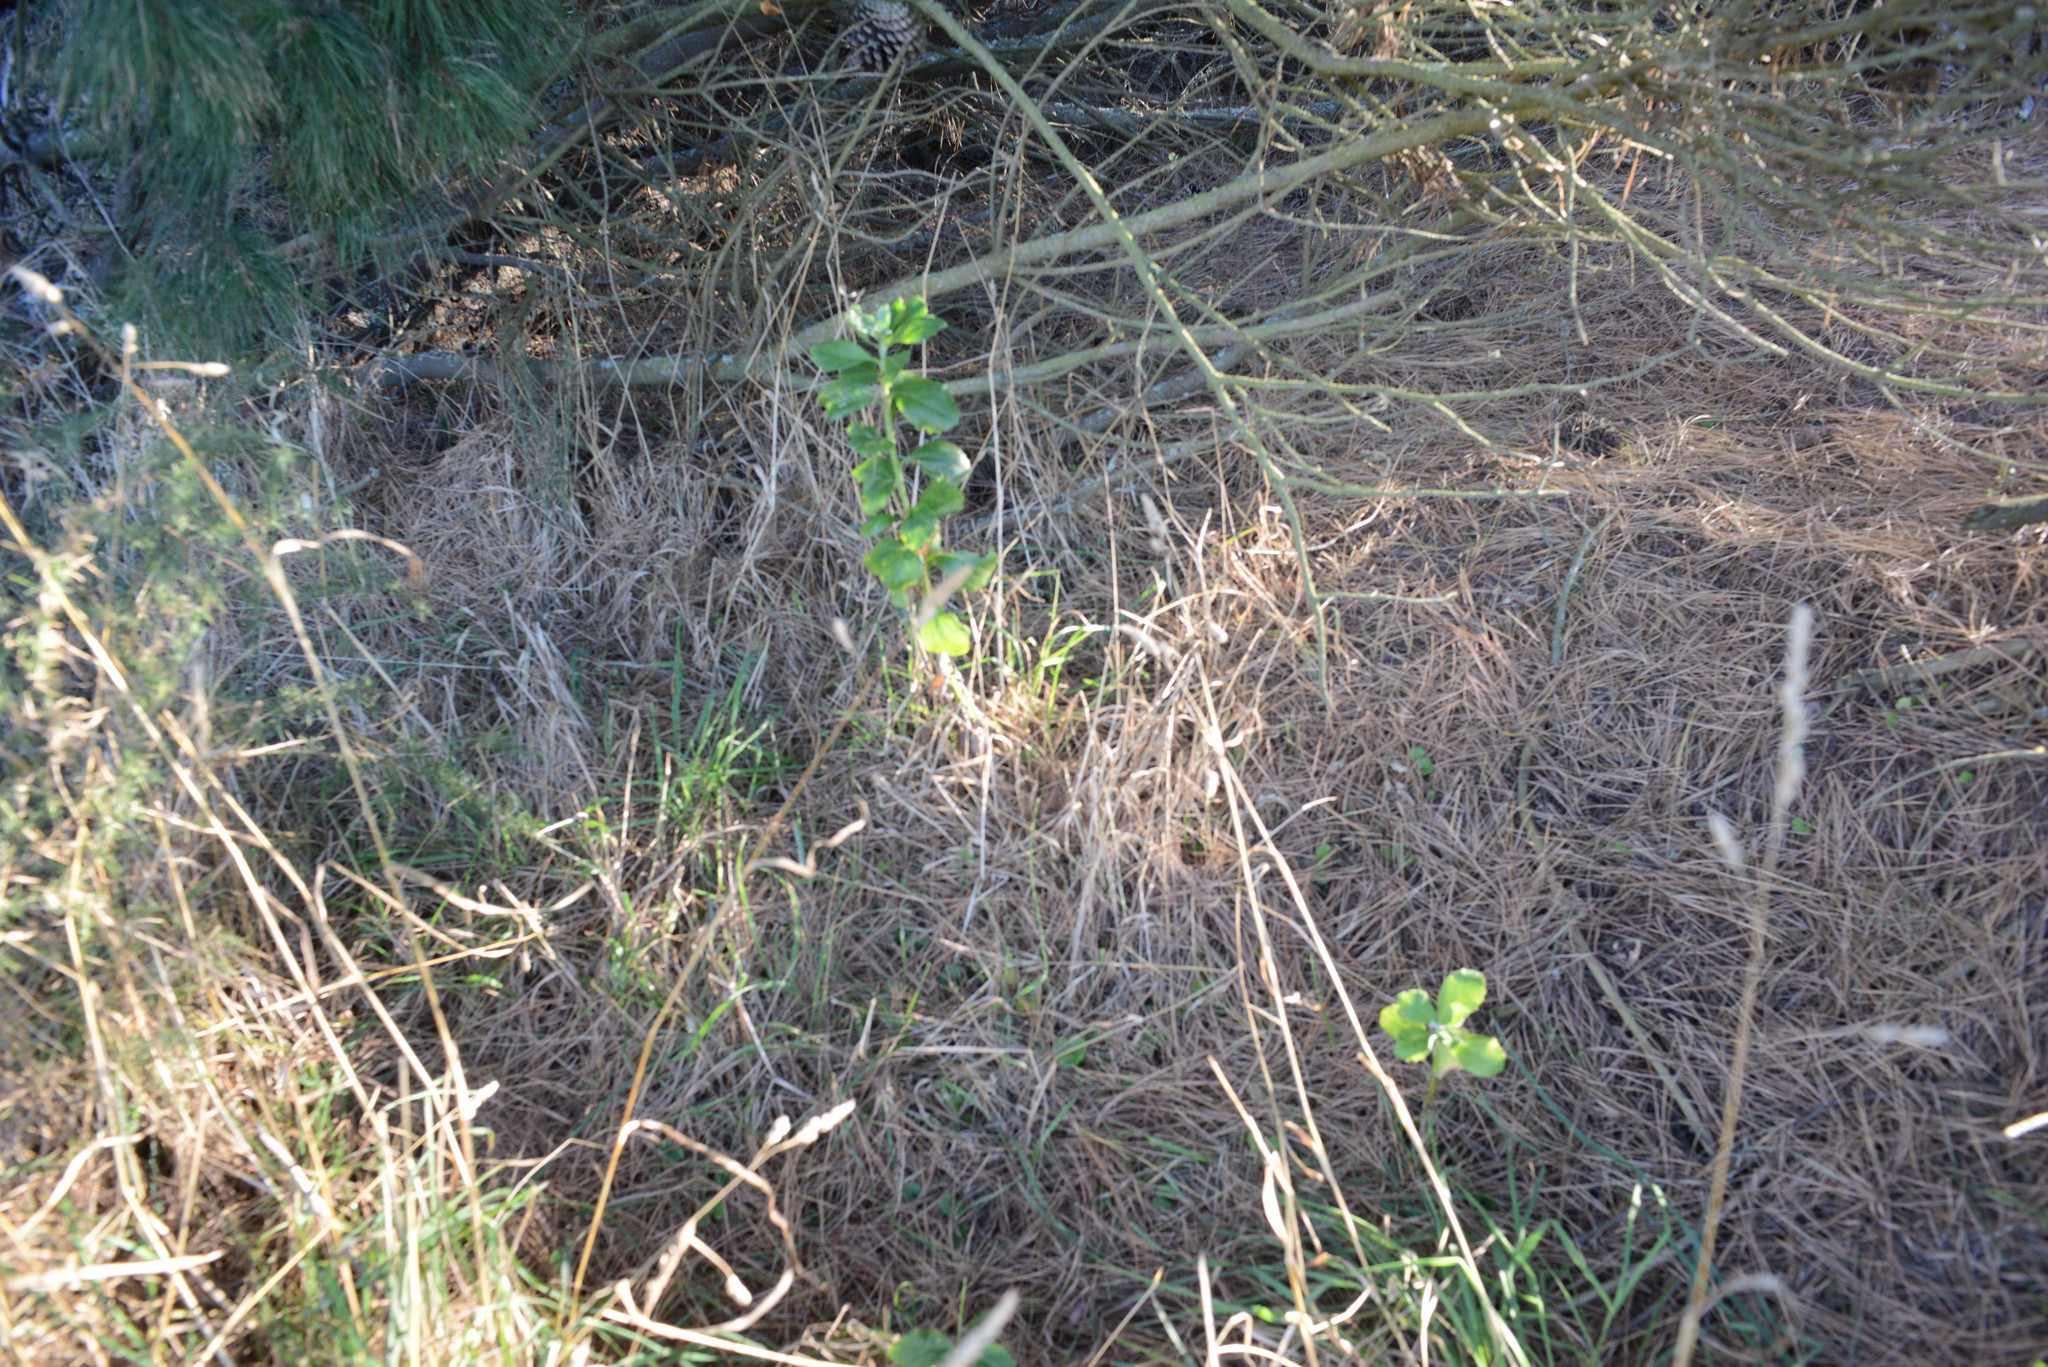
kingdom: Plantae
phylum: Tracheophyta
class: Magnoliopsida
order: Asterales
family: Asteraceae
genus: Osteospermum
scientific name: Osteospermum moniliferum
